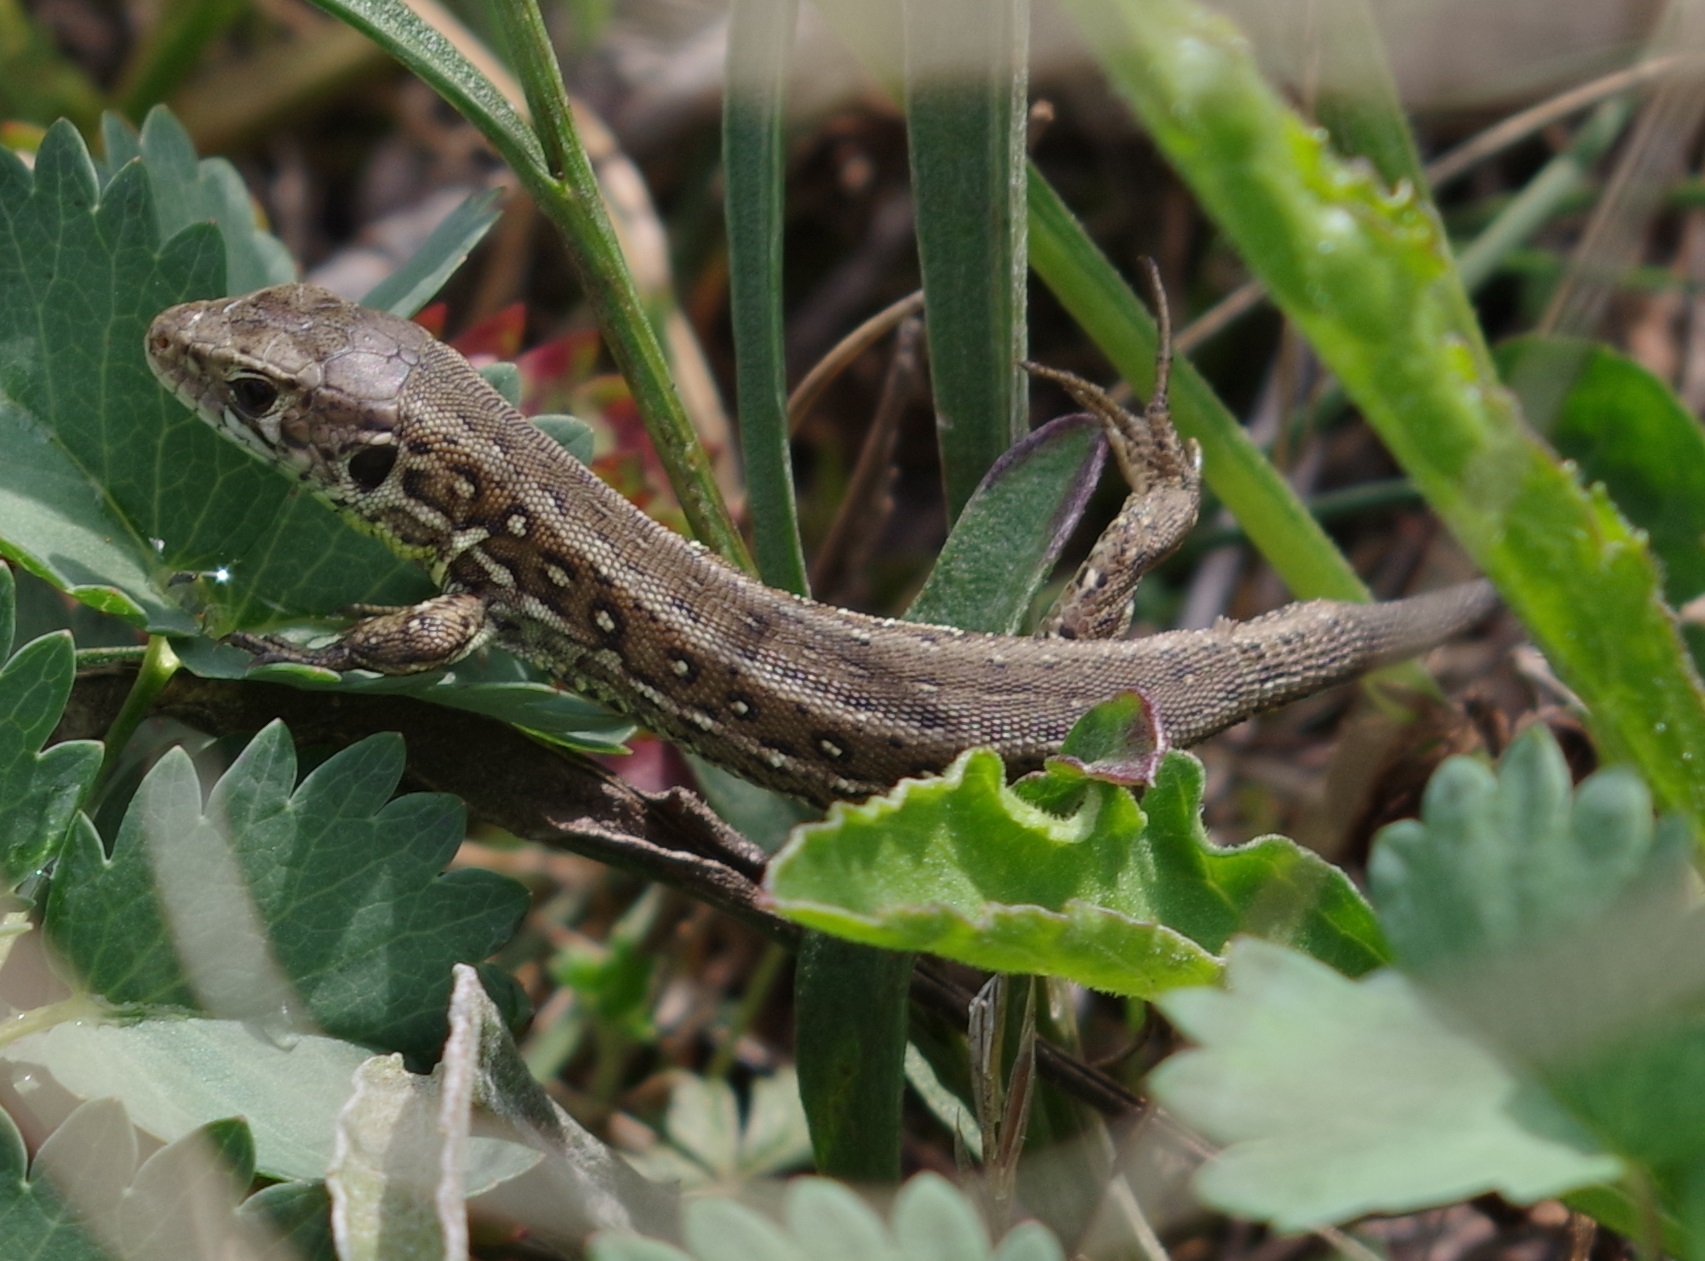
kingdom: Animalia
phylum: Chordata
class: Squamata
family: Lacertidae
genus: Lacerta
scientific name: Lacerta agilis
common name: Sand lizard
